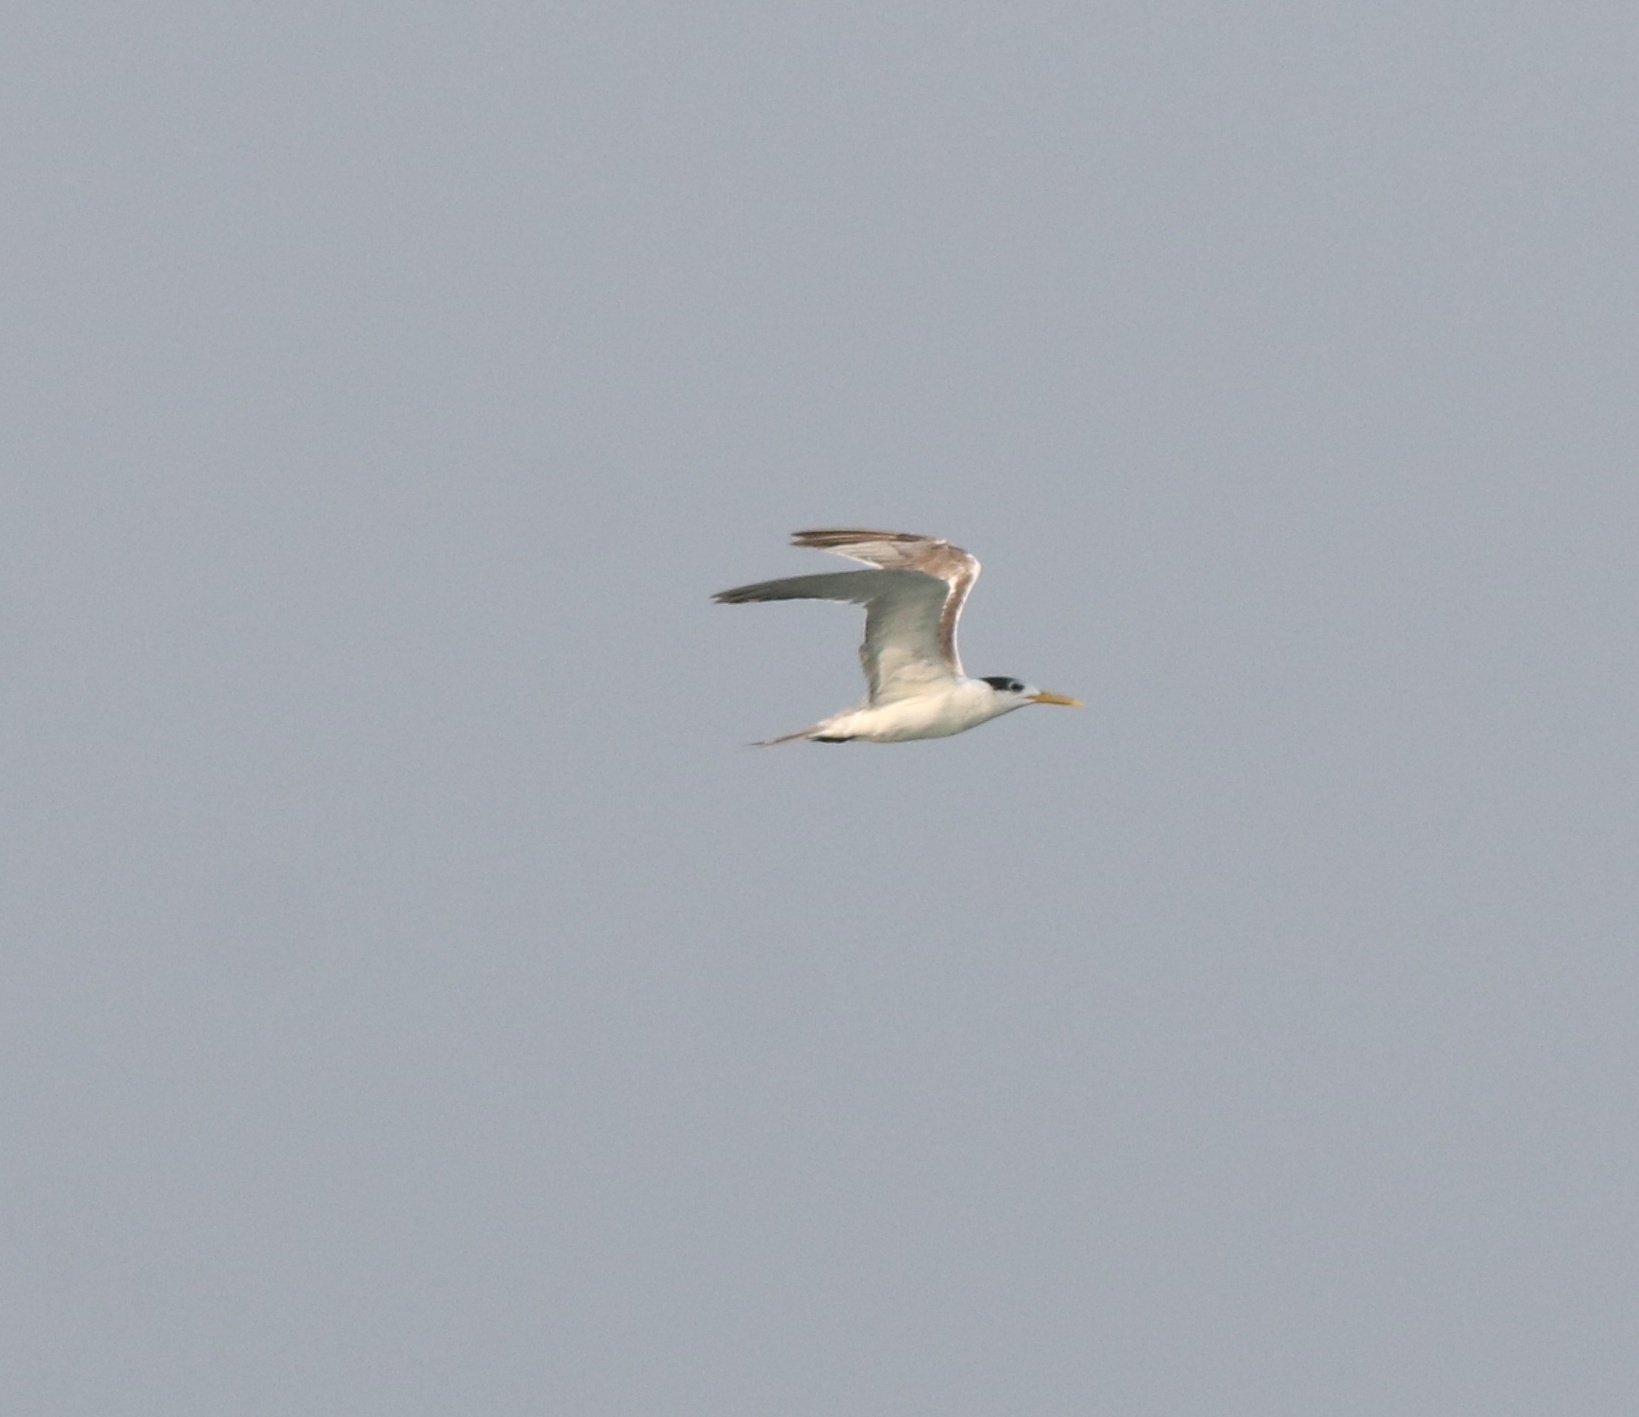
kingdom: Animalia
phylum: Chordata
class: Aves
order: Charadriiformes
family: Laridae
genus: Thalasseus
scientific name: Thalasseus bergii
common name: Greater crested tern
